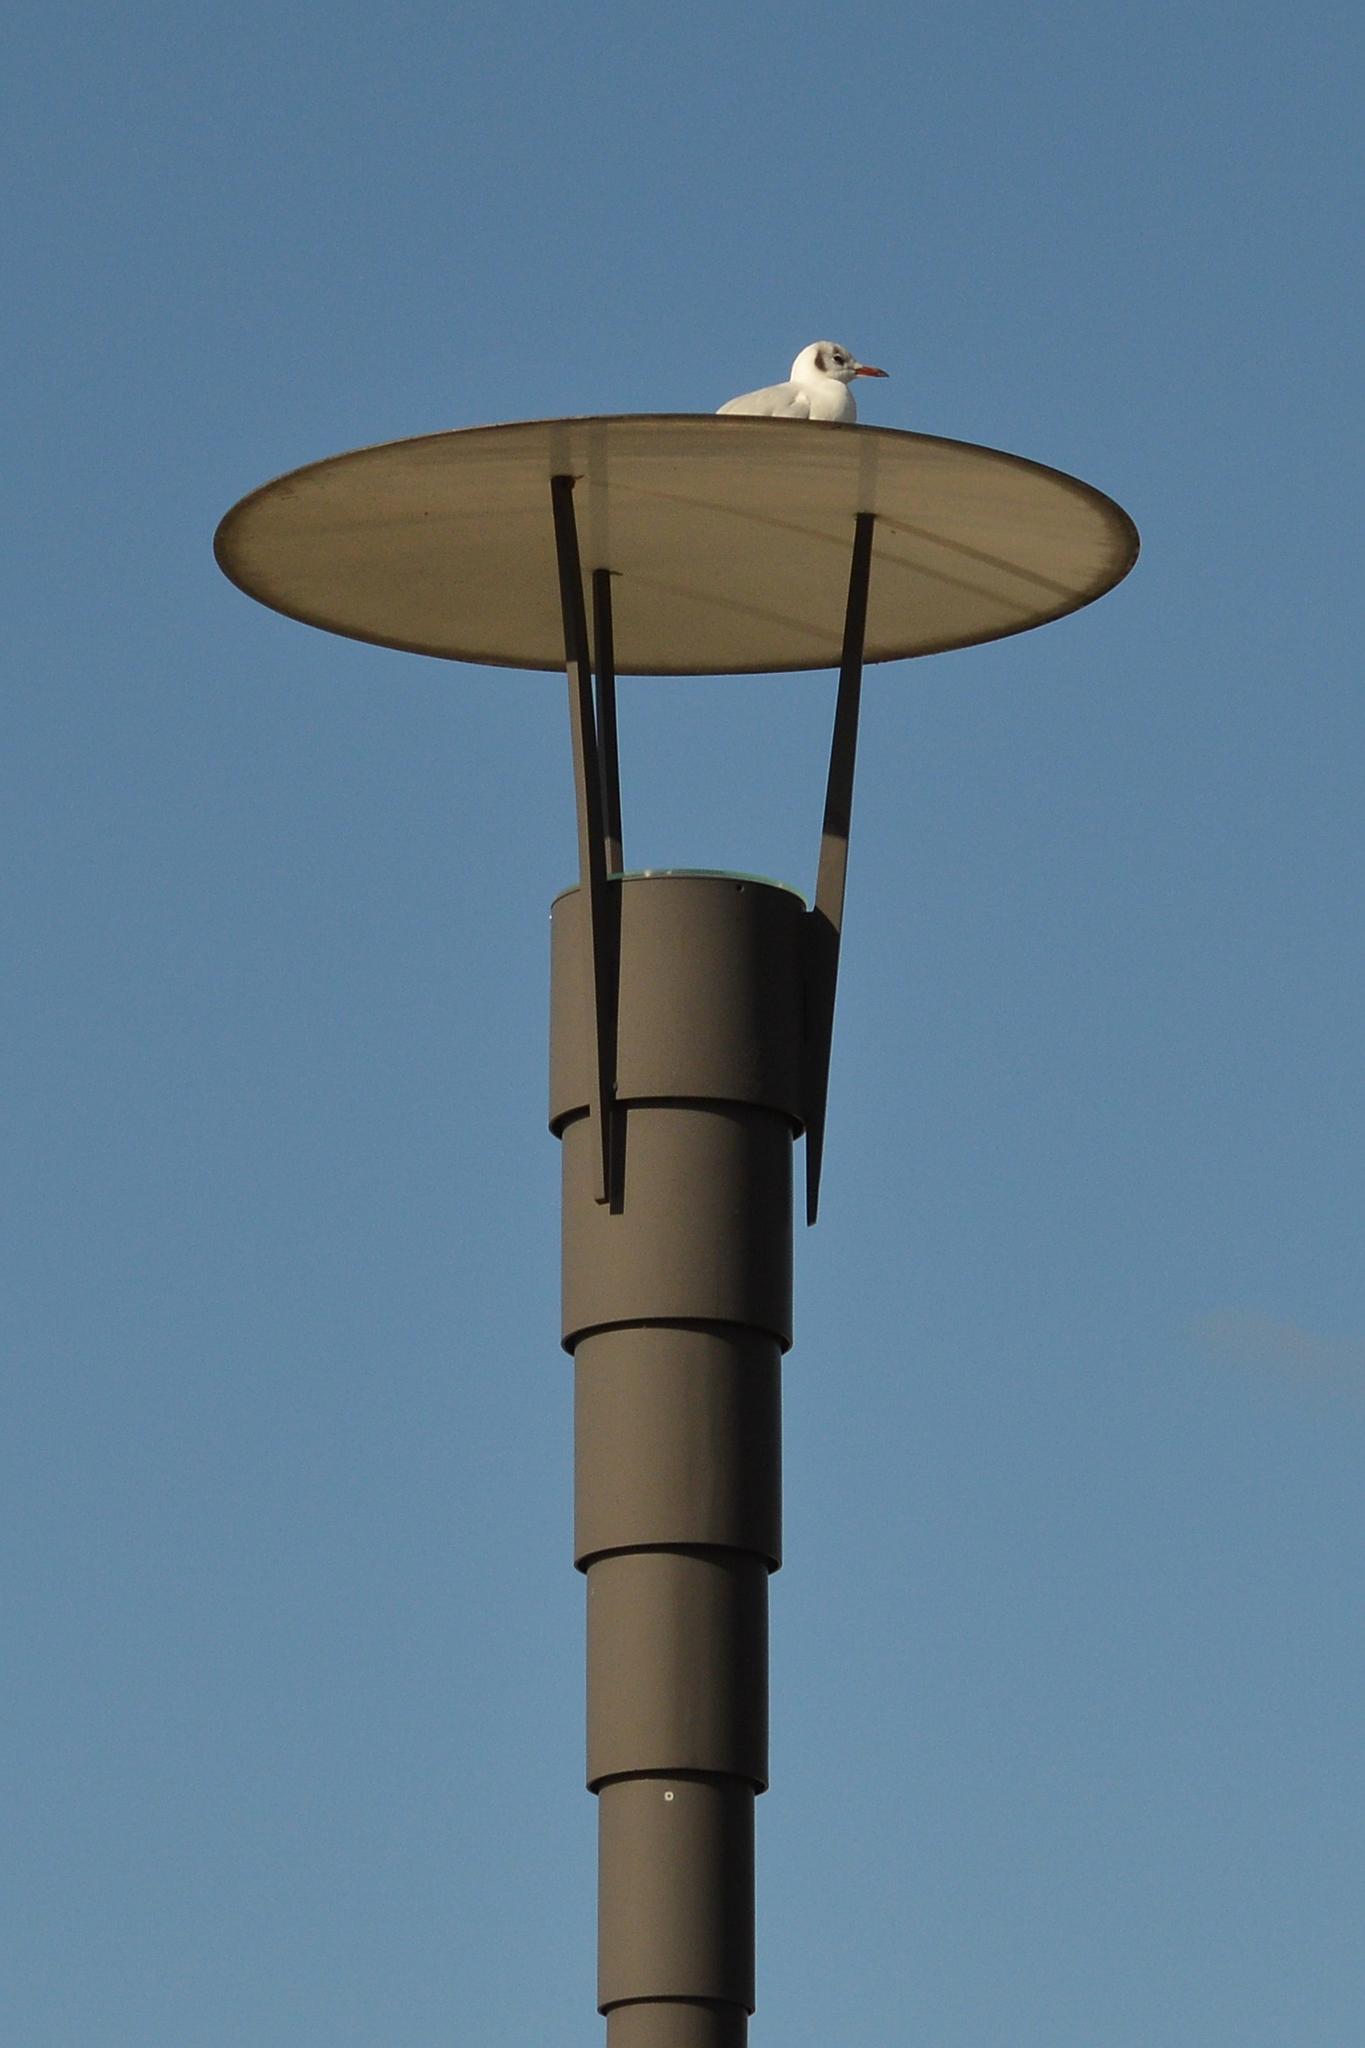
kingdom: Animalia
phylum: Chordata
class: Aves
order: Charadriiformes
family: Laridae
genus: Chroicocephalus
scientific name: Chroicocephalus ridibundus
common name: Black-headed gull
